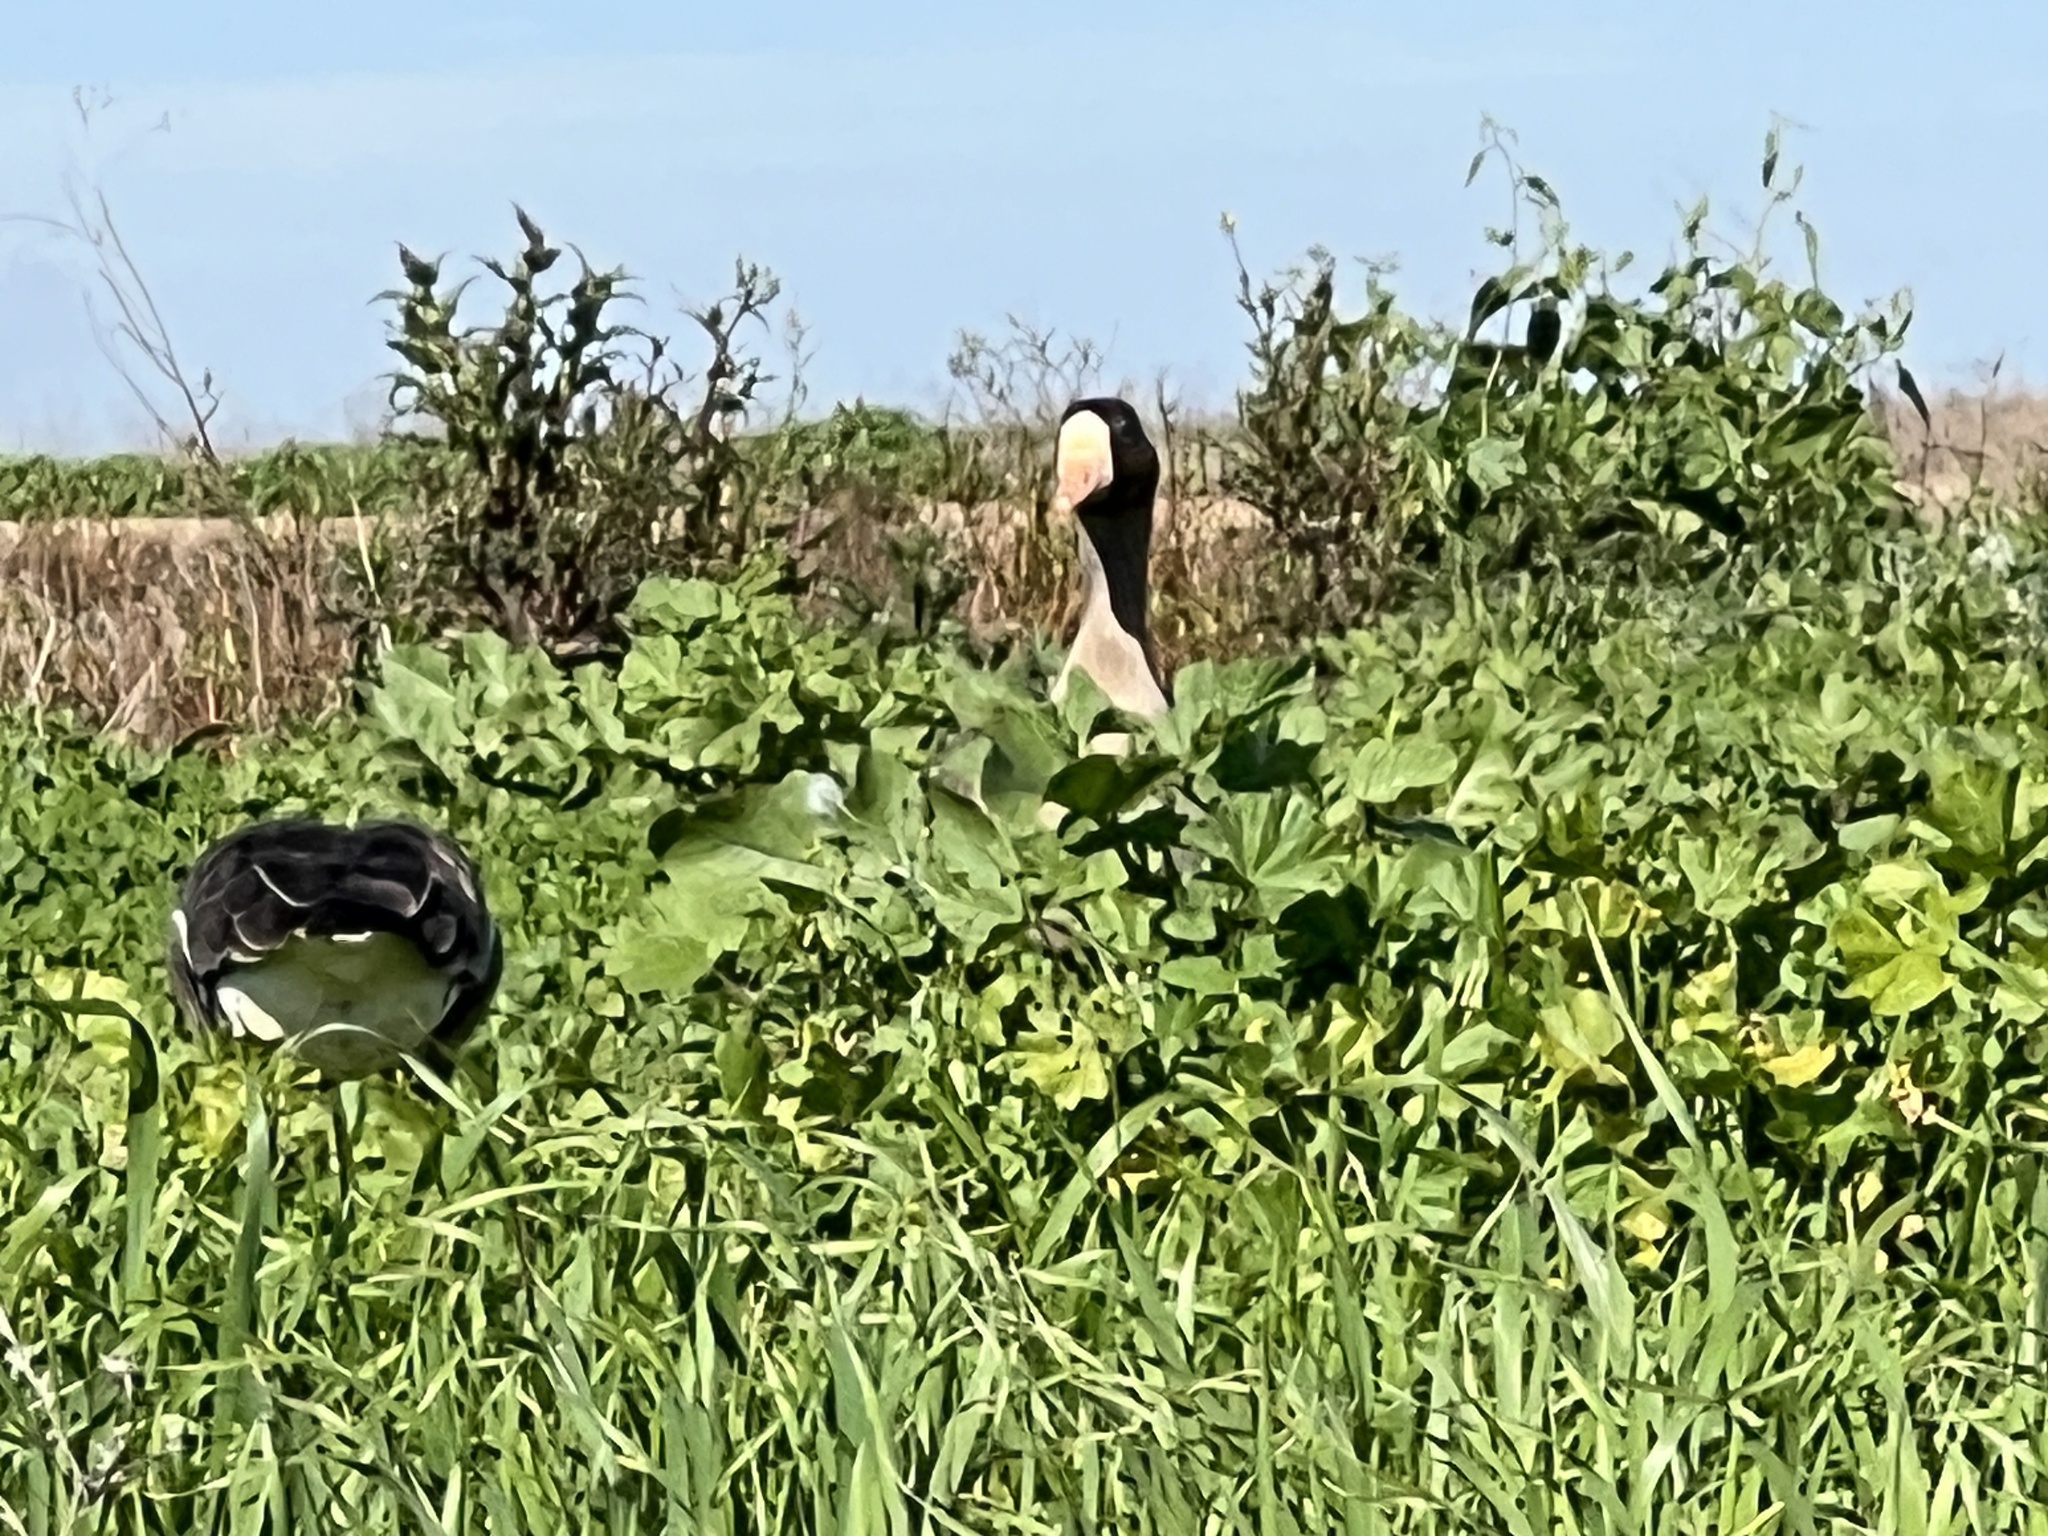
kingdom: Animalia
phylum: Chordata
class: Aves
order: Anseriformes
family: Anatidae
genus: Anser
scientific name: Anser albifrons
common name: Greater white-fronted goose
